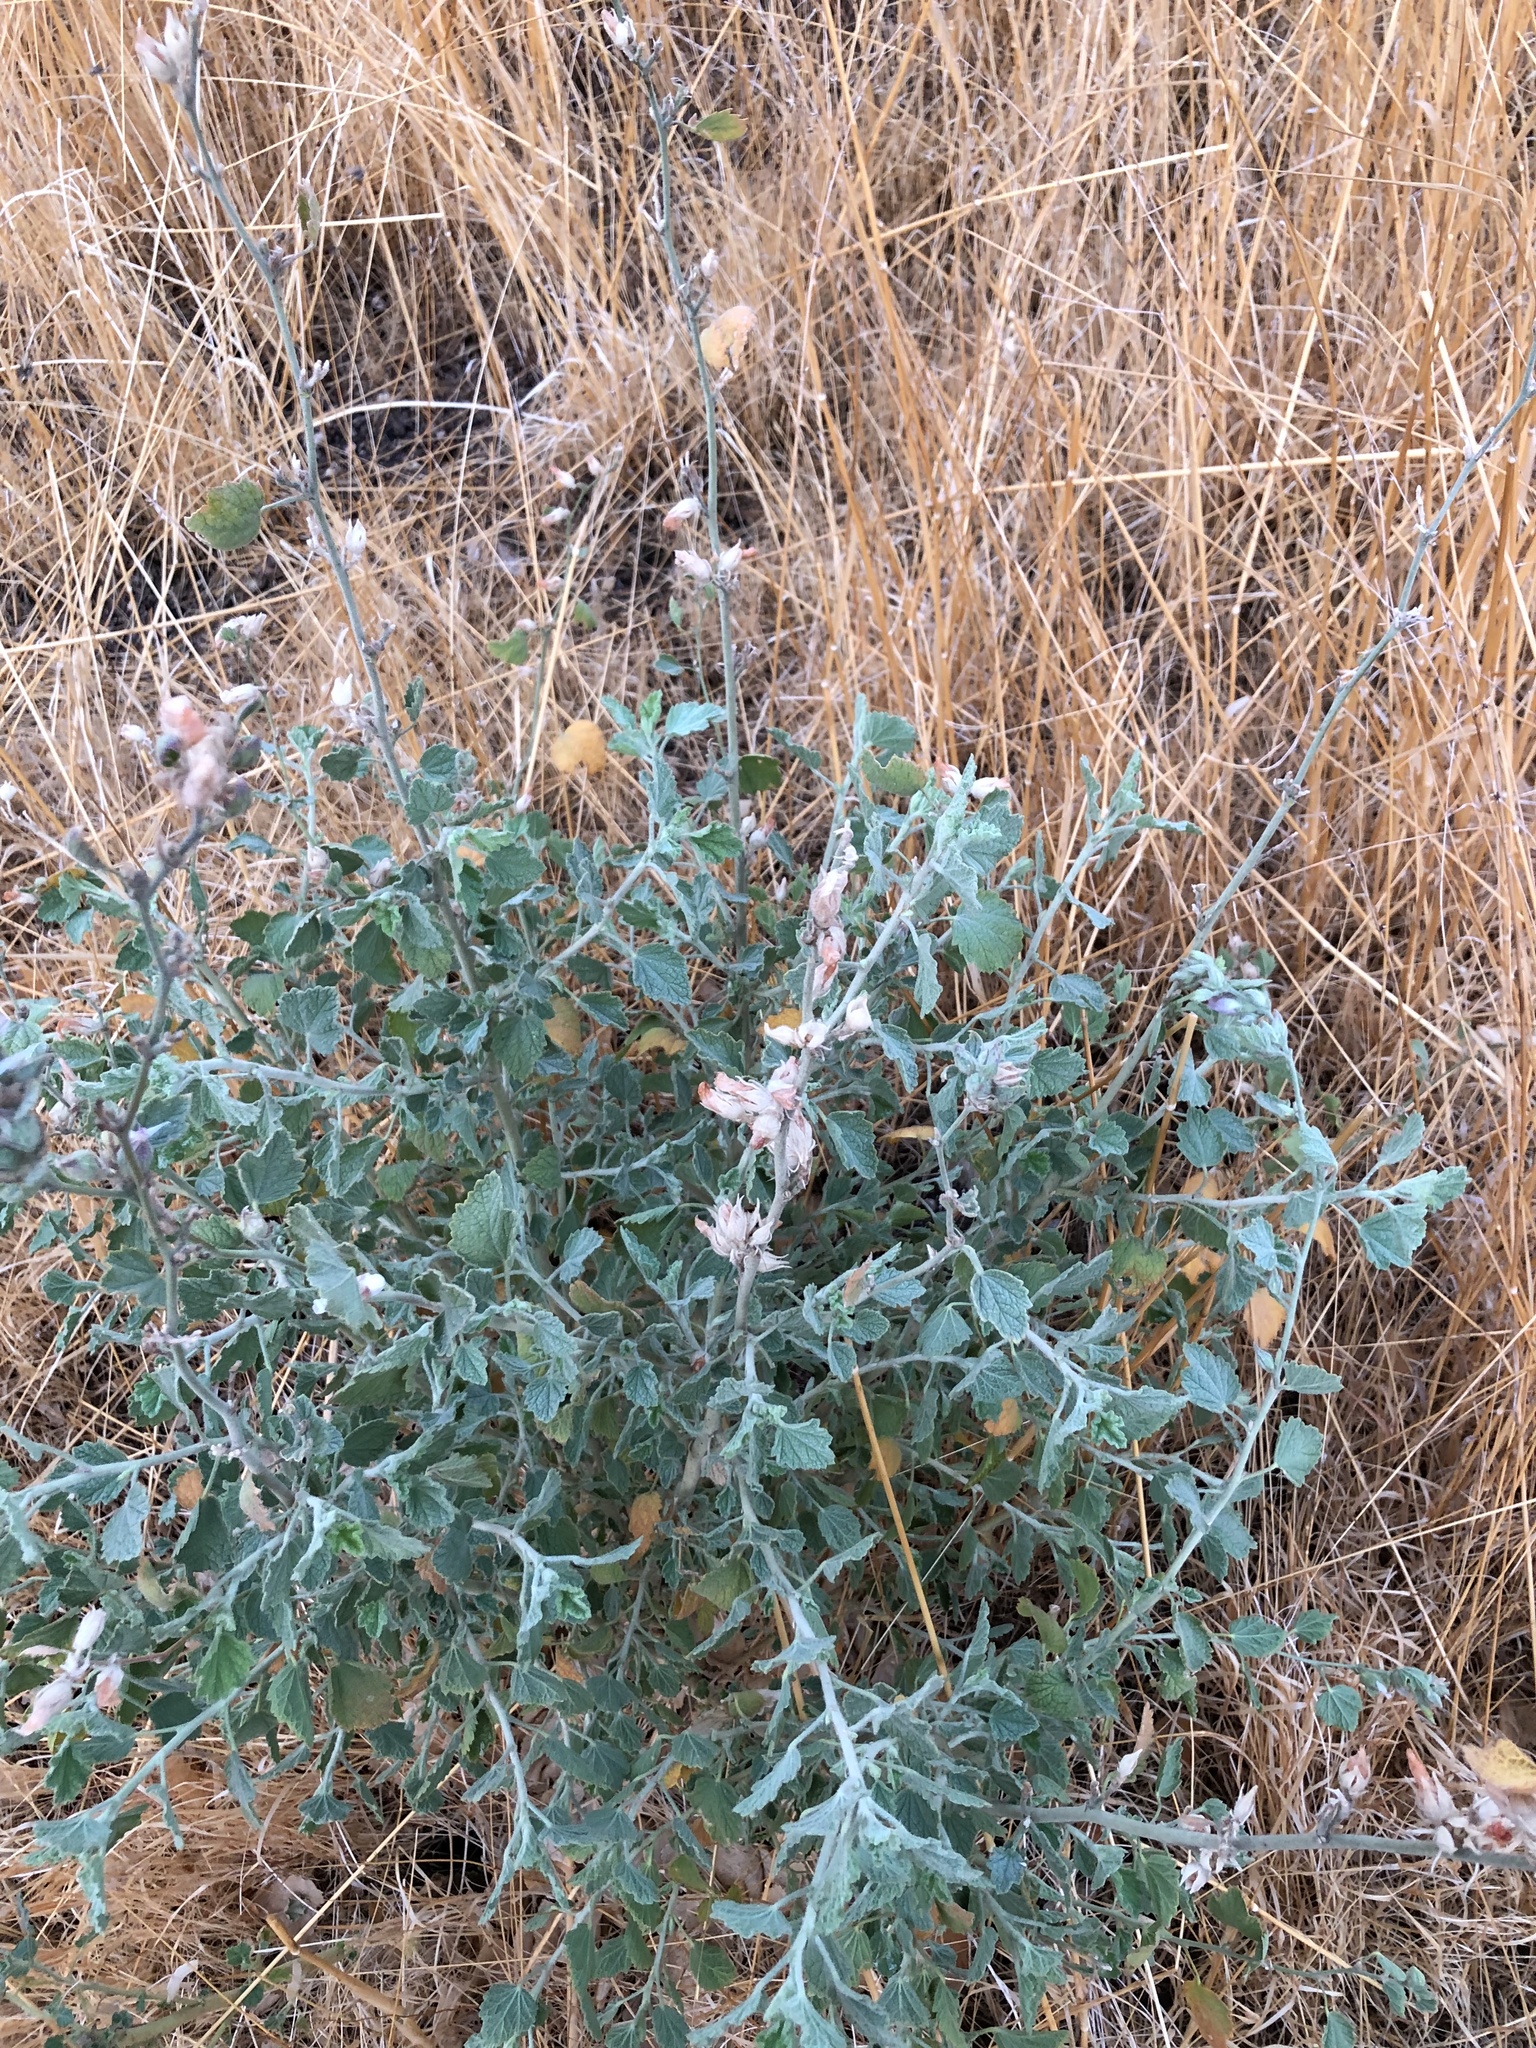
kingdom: Plantae
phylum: Tracheophyta
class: Magnoliopsida
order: Malvales
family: Malvaceae
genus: Malacothamnus
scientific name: Malacothamnus marrubioides
